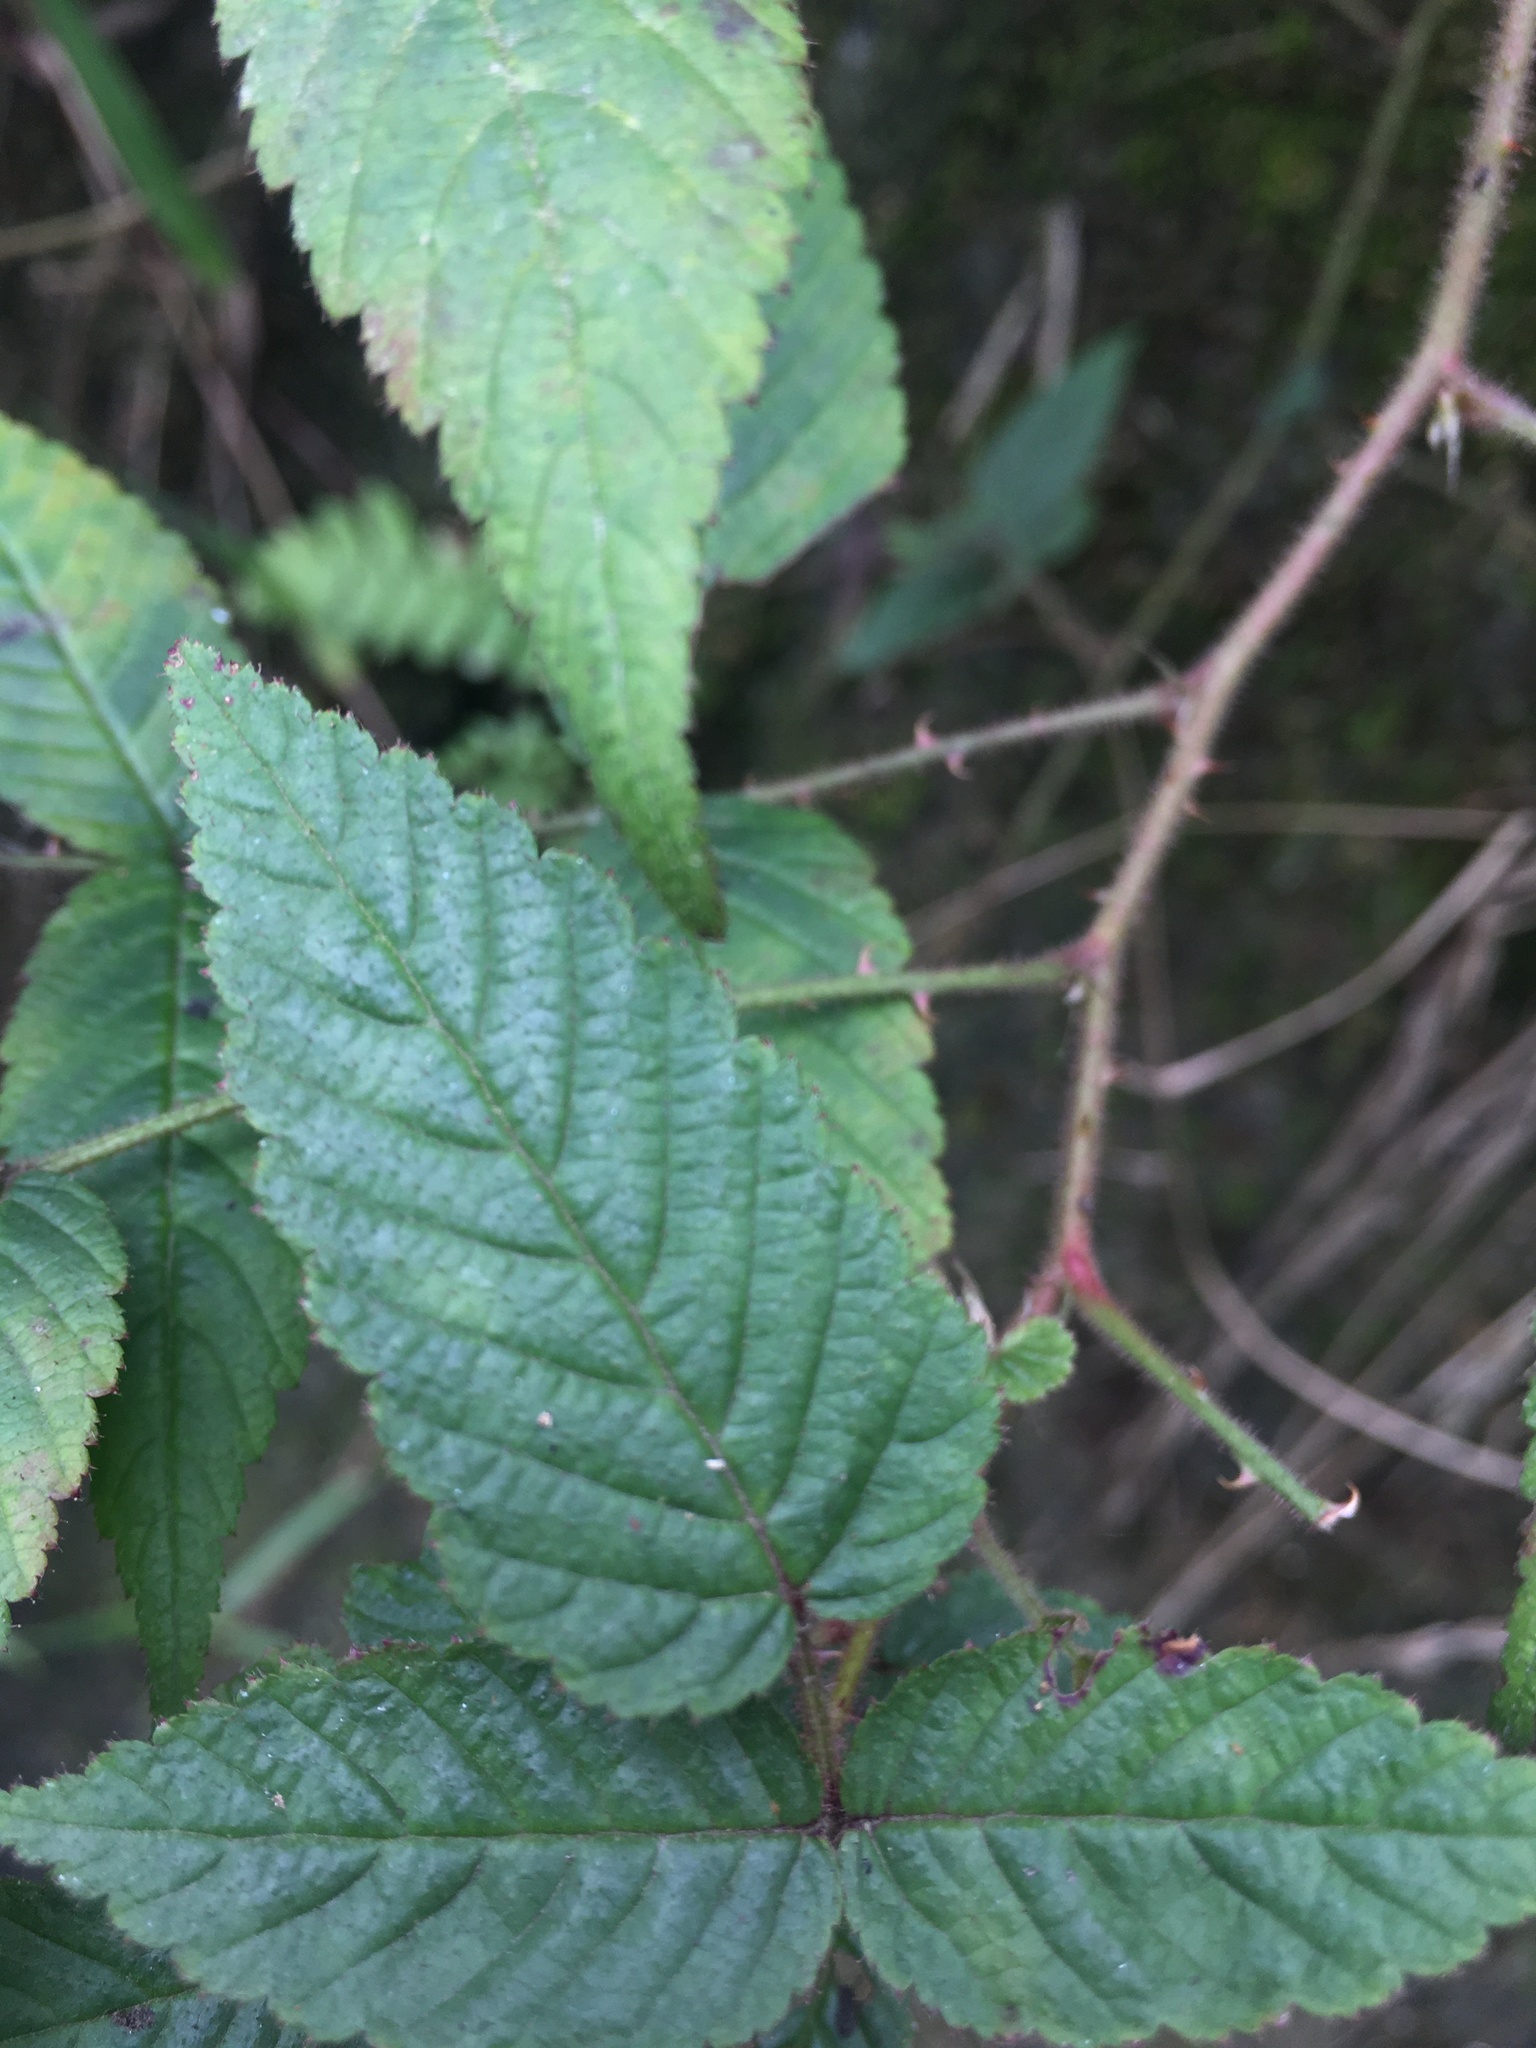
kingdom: Plantae
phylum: Tracheophyta
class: Magnoliopsida
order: Rosales
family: Rosaceae
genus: Rubus
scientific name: Rubus croceacanthus
